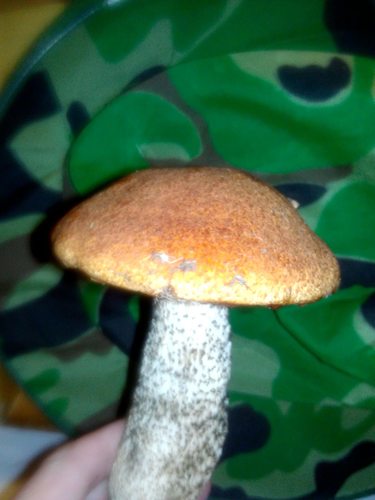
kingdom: Fungi
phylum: Basidiomycota
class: Agaricomycetes
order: Boletales
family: Boletaceae
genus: Leccinum
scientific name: Leccinum
